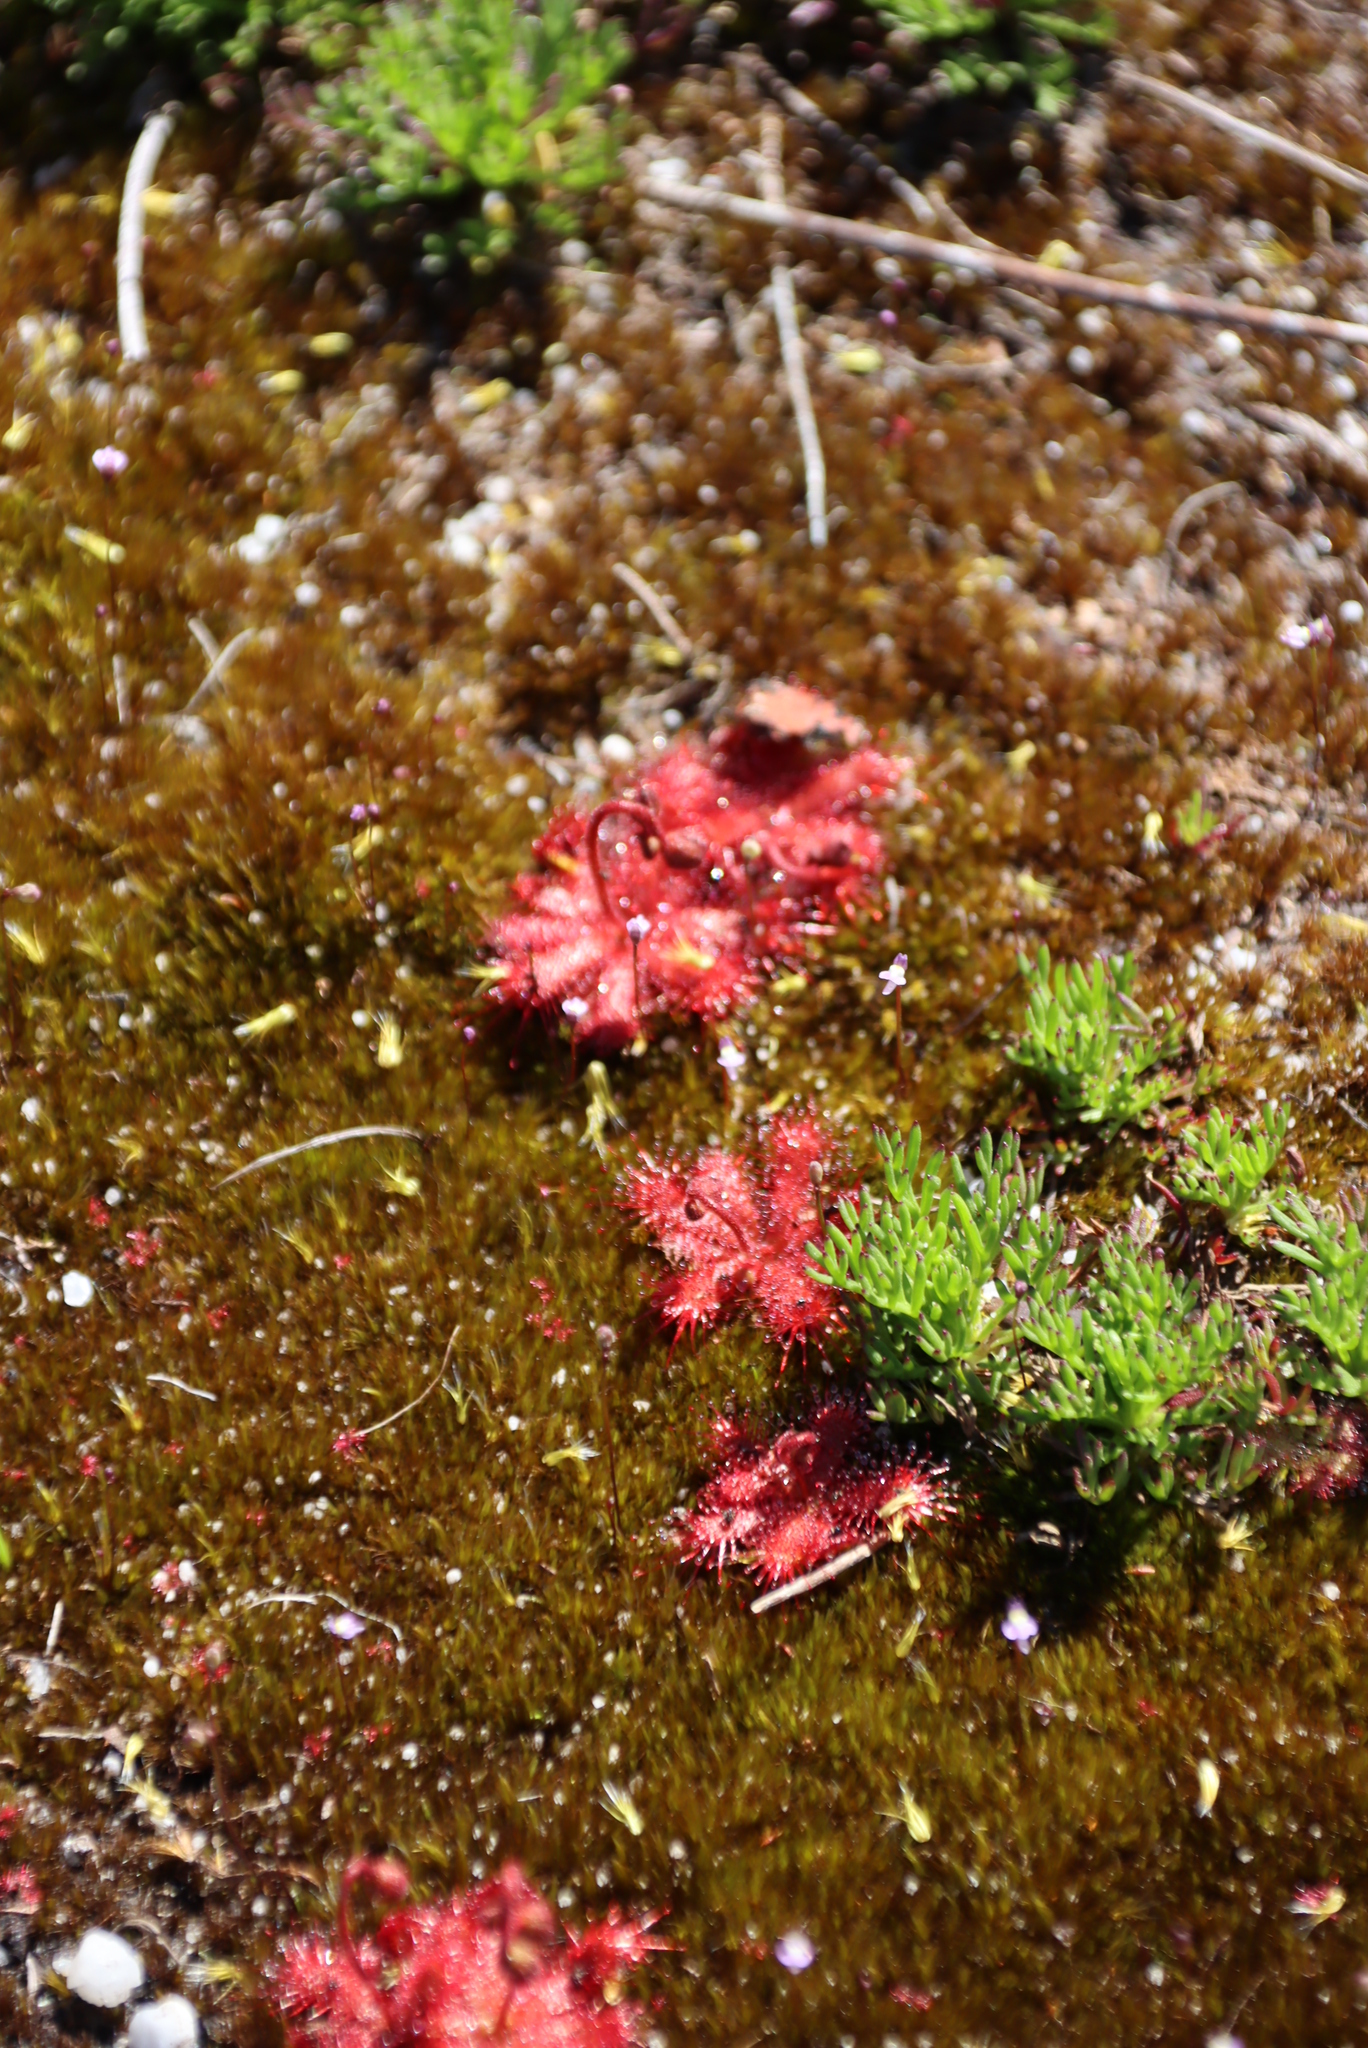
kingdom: Plantae
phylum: Tracheophyta
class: Magnoliopsida
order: Caryophyllales
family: Droseraceae
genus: Drosera
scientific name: Drosera trinervia
